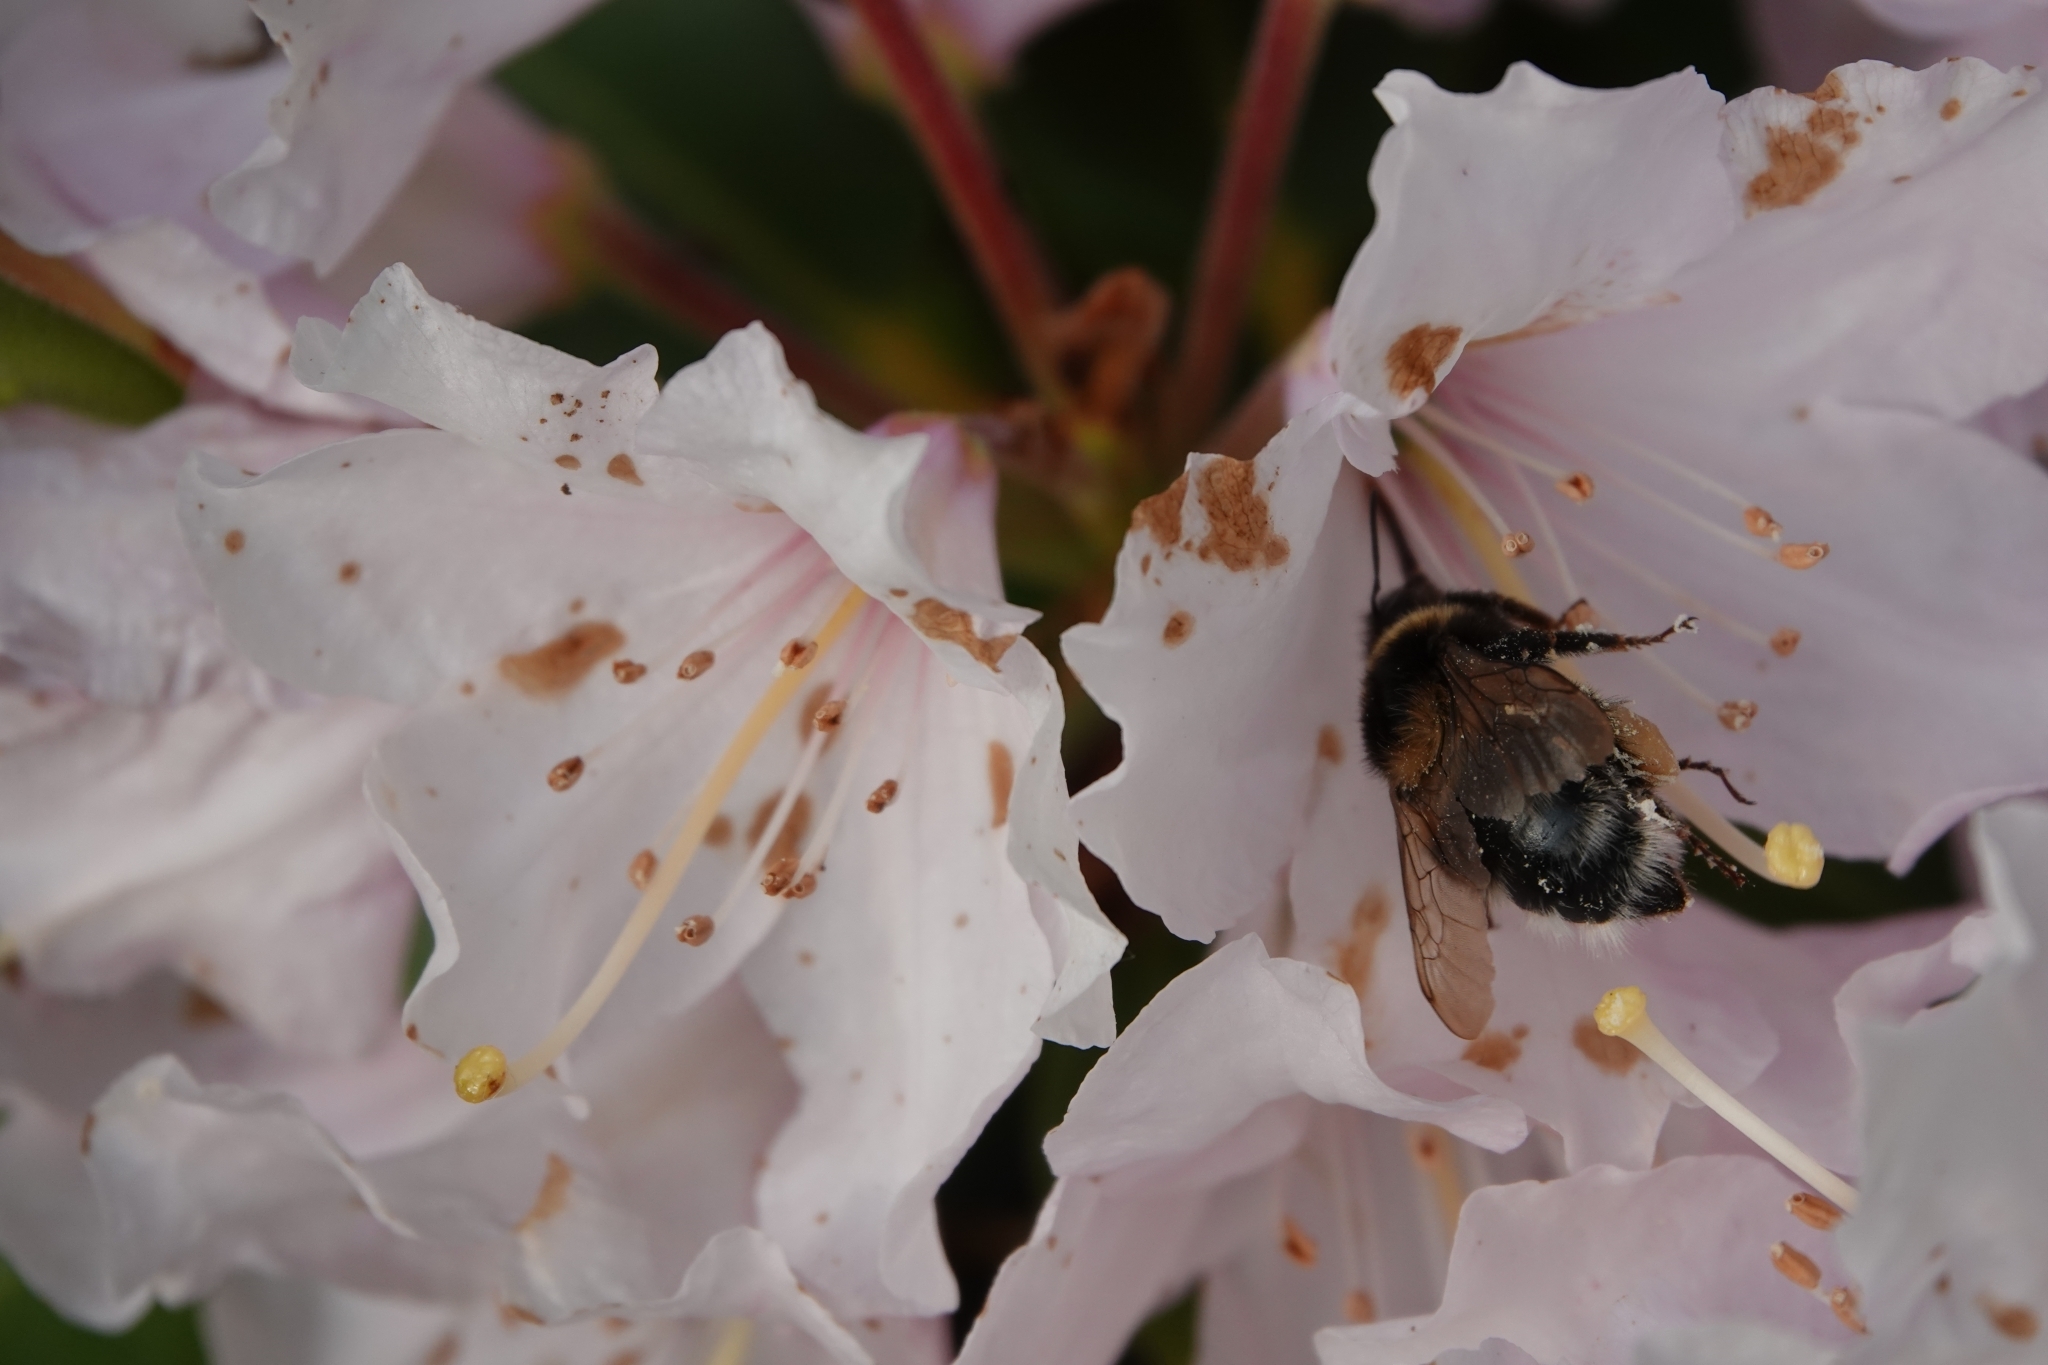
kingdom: Animalia
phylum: Arthropoda
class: Insecta
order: Hymenoptera
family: Apidae
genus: Bombus
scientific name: Bombus hortorum
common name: Garden bumblebee
